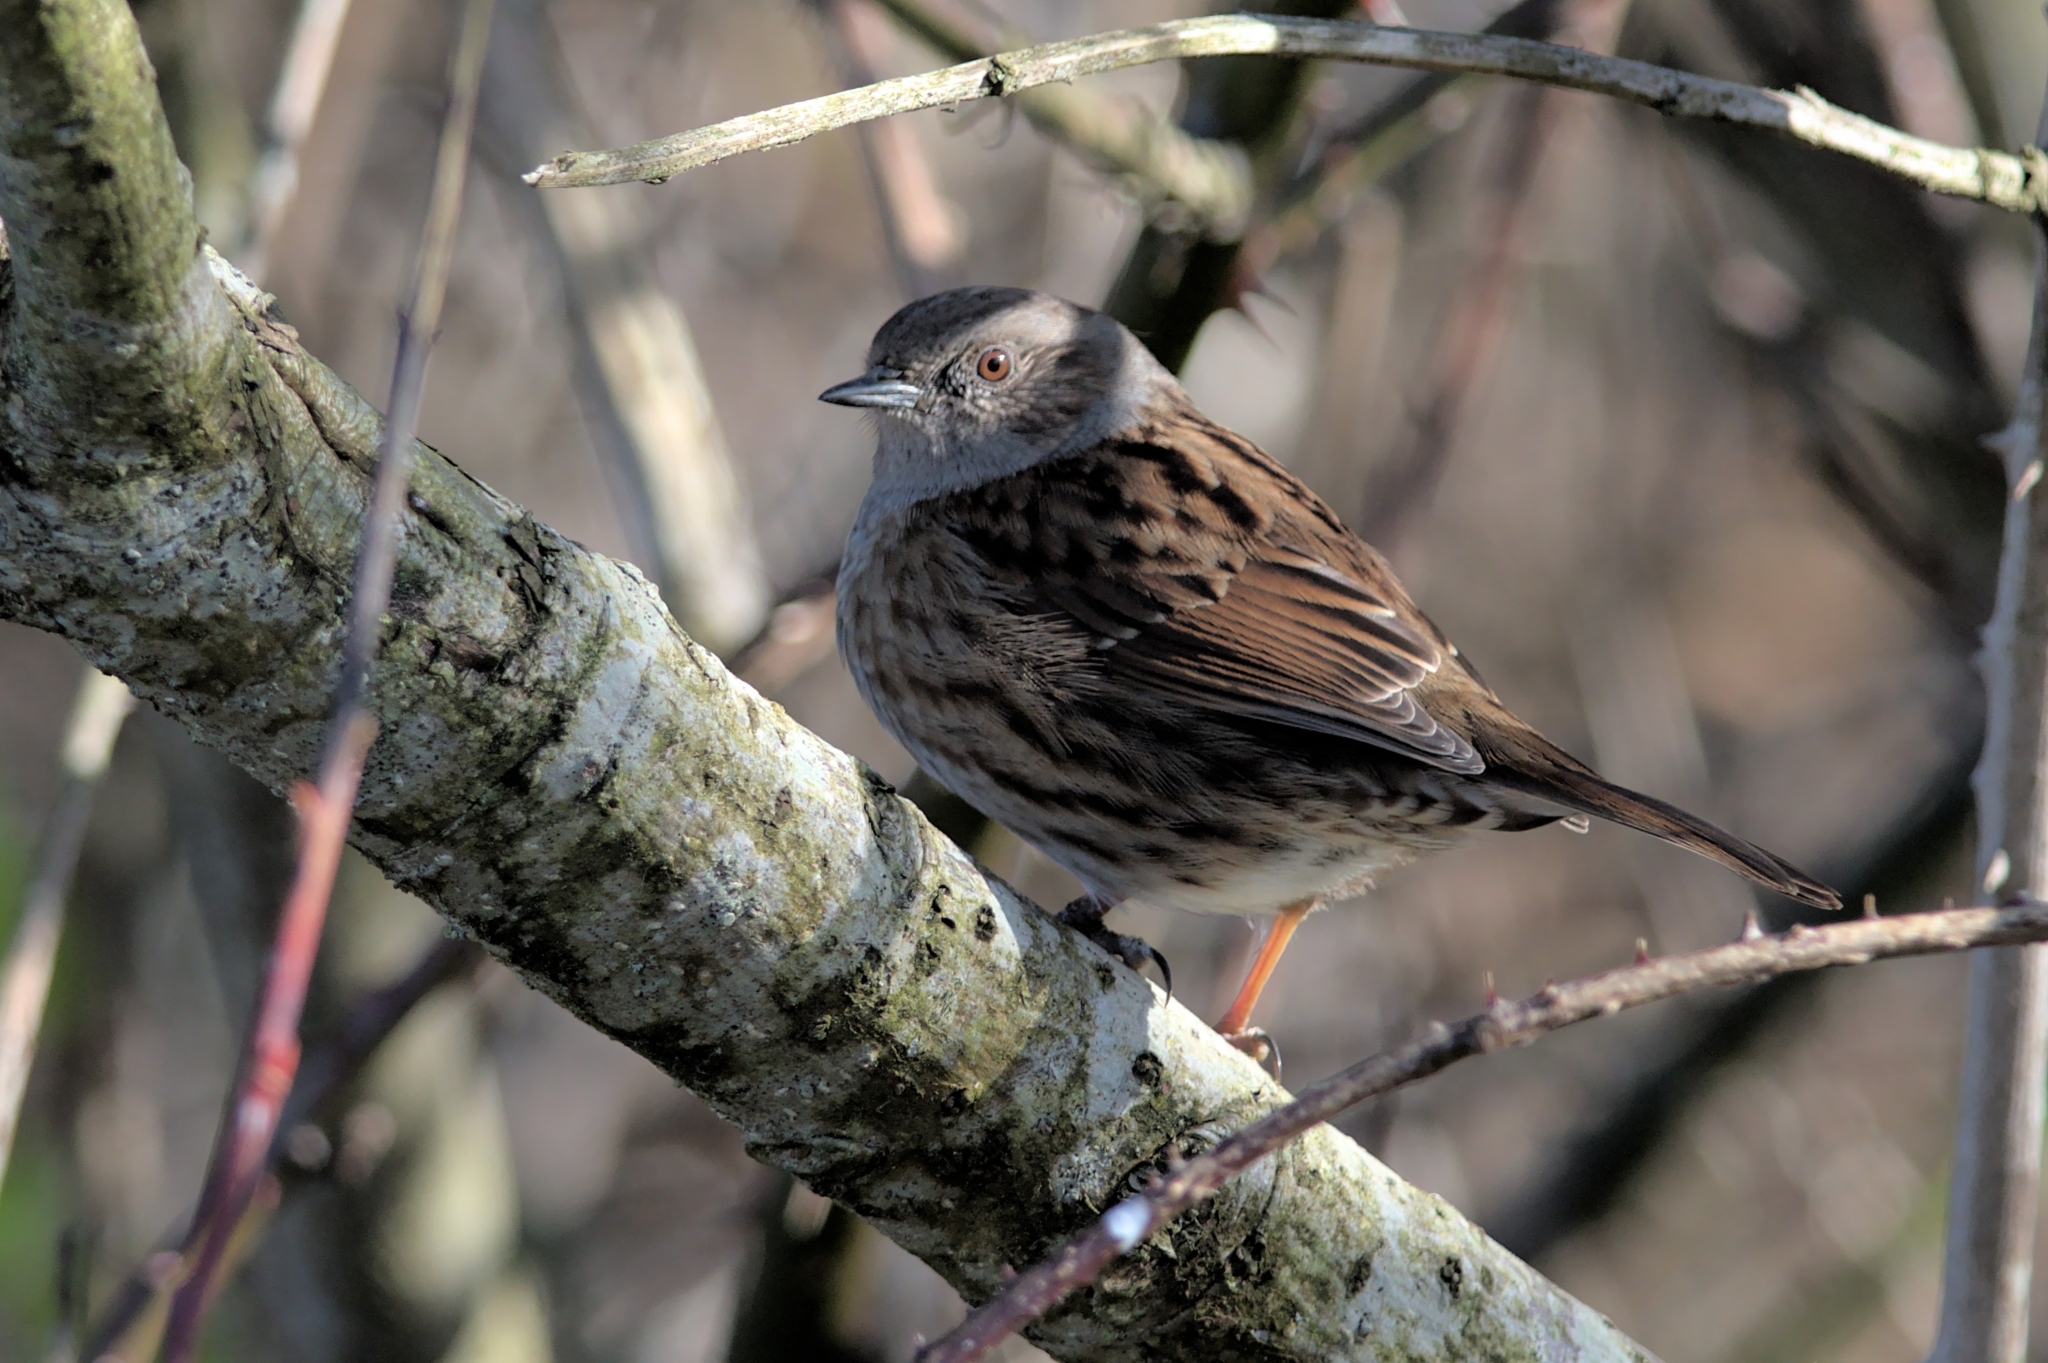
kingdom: Animalia
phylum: Chordata
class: Aves
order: Passeriformes
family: Prunellidae
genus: Prunella
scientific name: Prunella modularis
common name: Dunnock
